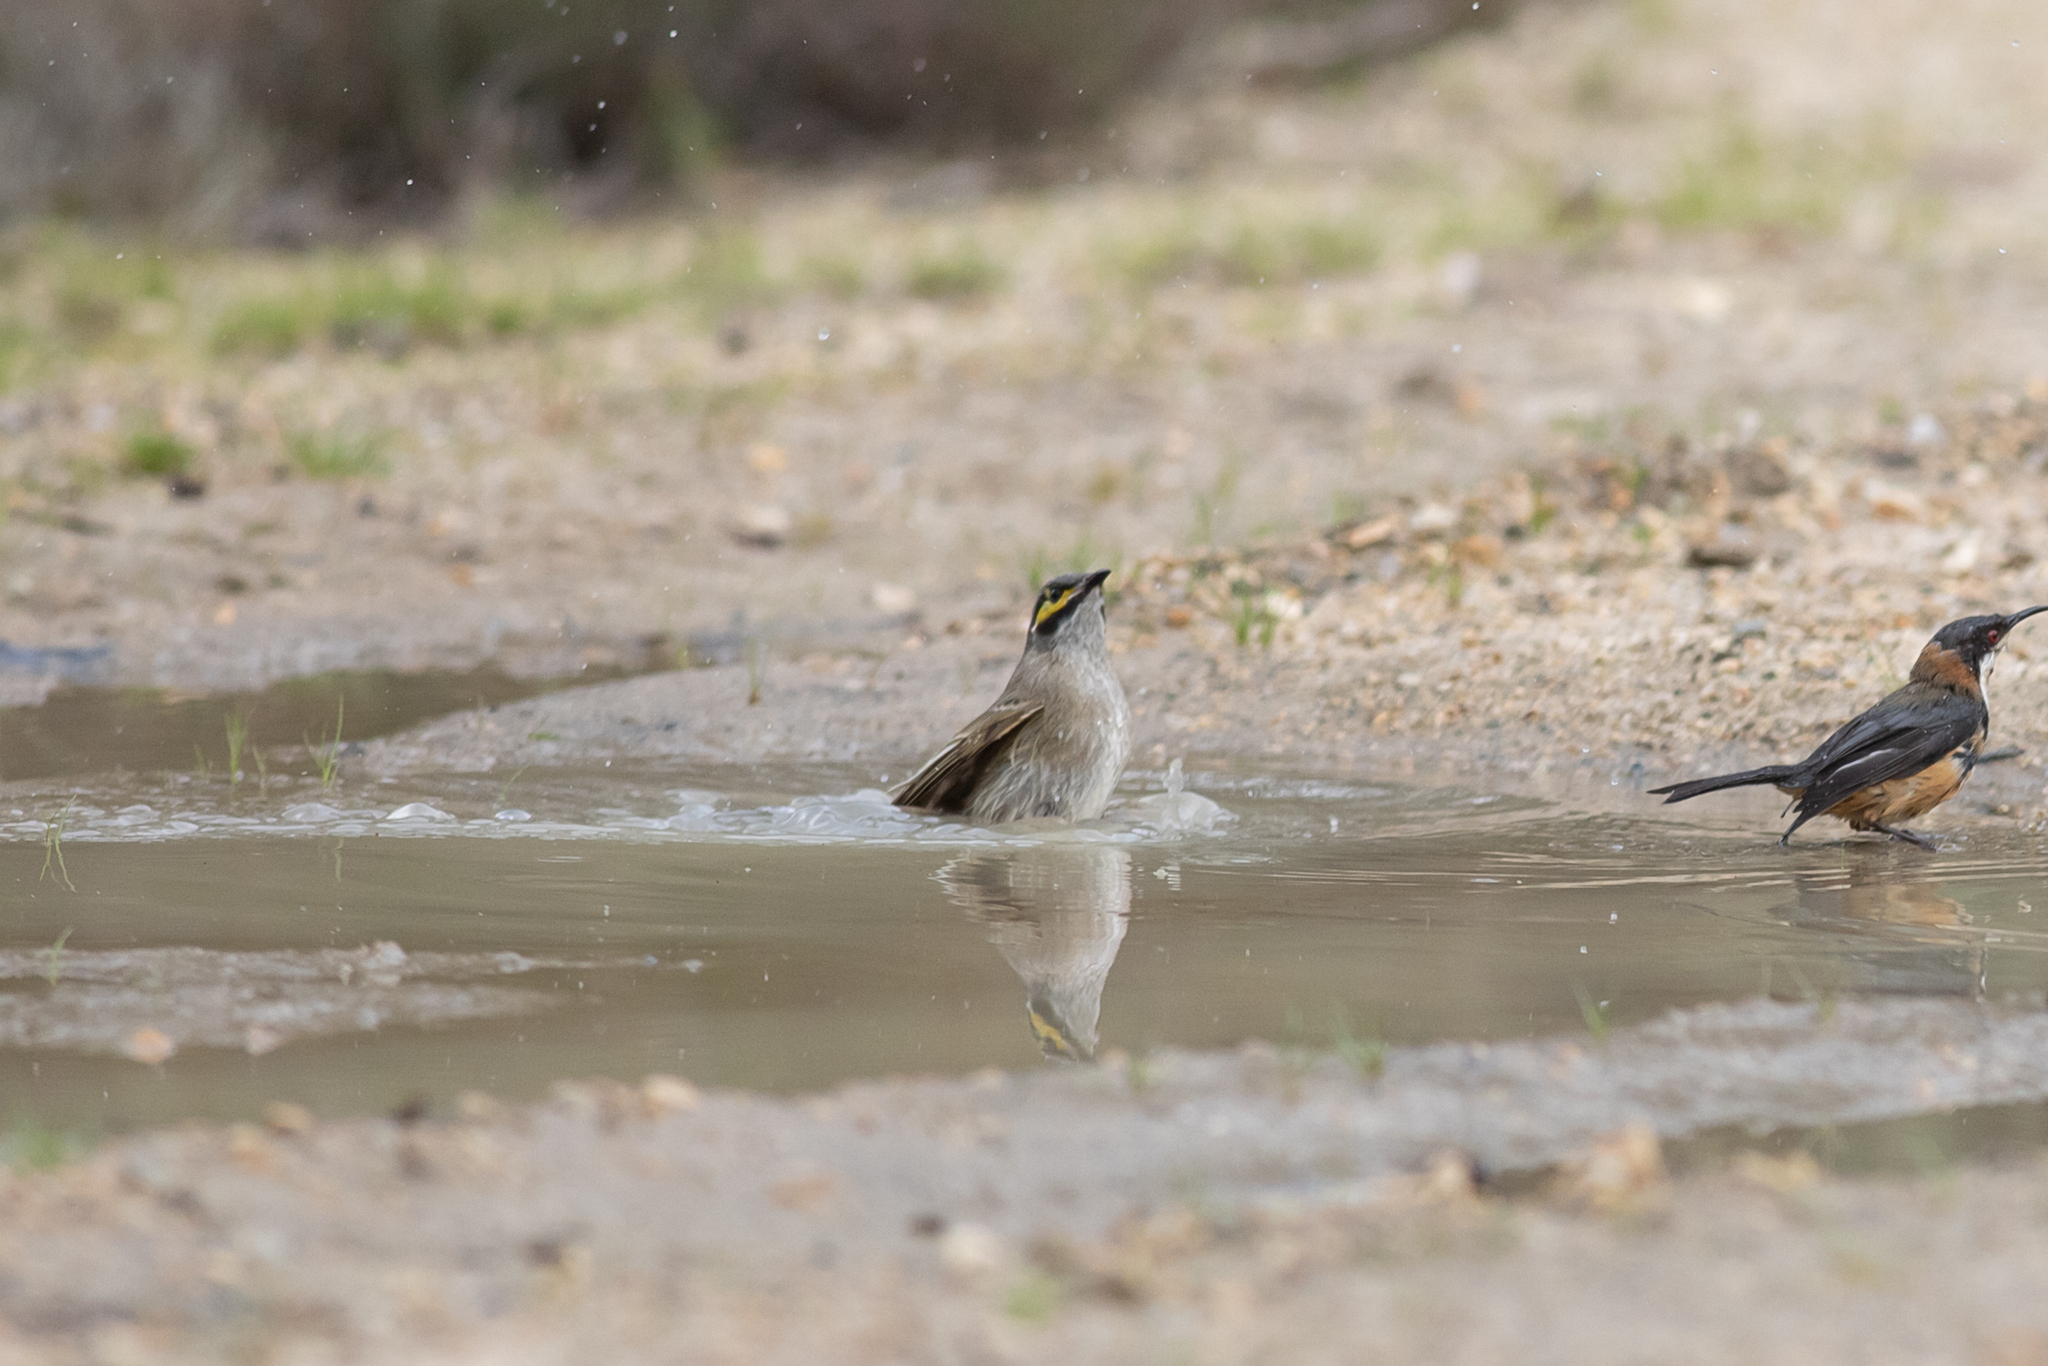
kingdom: Animalia
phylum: Chordata
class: Aves
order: Passeriformes
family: Meliphagidae
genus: Caligavis
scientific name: Caligavis chrysops
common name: Yellow-faced honeyeater
